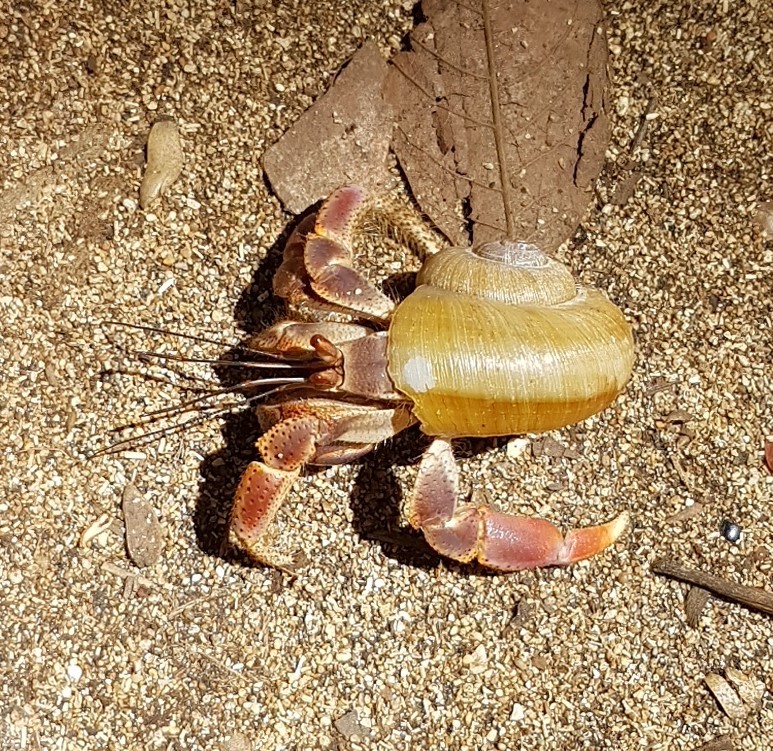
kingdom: Animalia
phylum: Arthropoda
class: Malacostraca
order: Decapoda
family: Coenobitidae
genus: Coenobita
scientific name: Coenobita clypeatus
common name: Caribbean hermit crab
